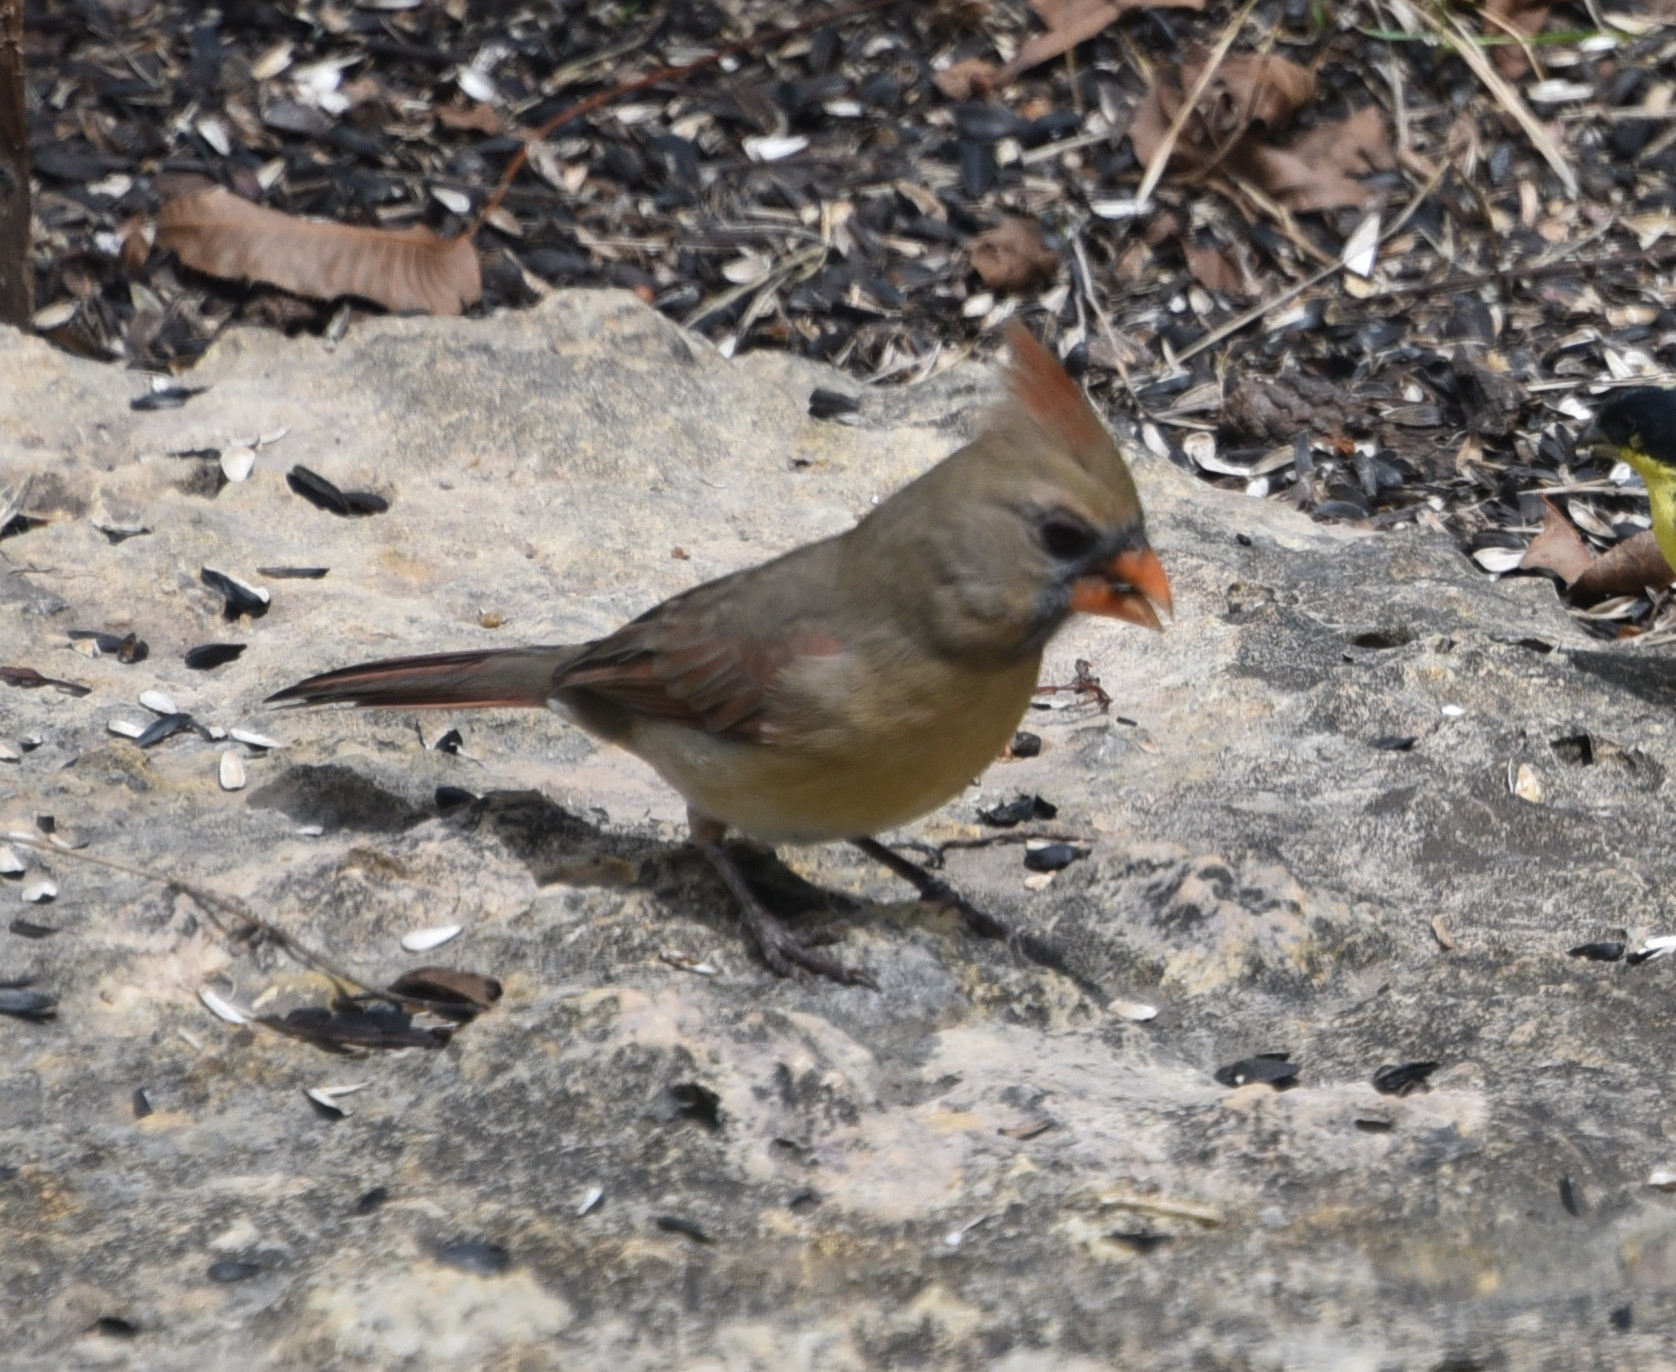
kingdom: Animalia
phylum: Chordata
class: Aves
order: Passeriformes
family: Cardinalidae
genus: Cardinalis
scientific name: Cardinalis cardinalis
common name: Northern cardinal
